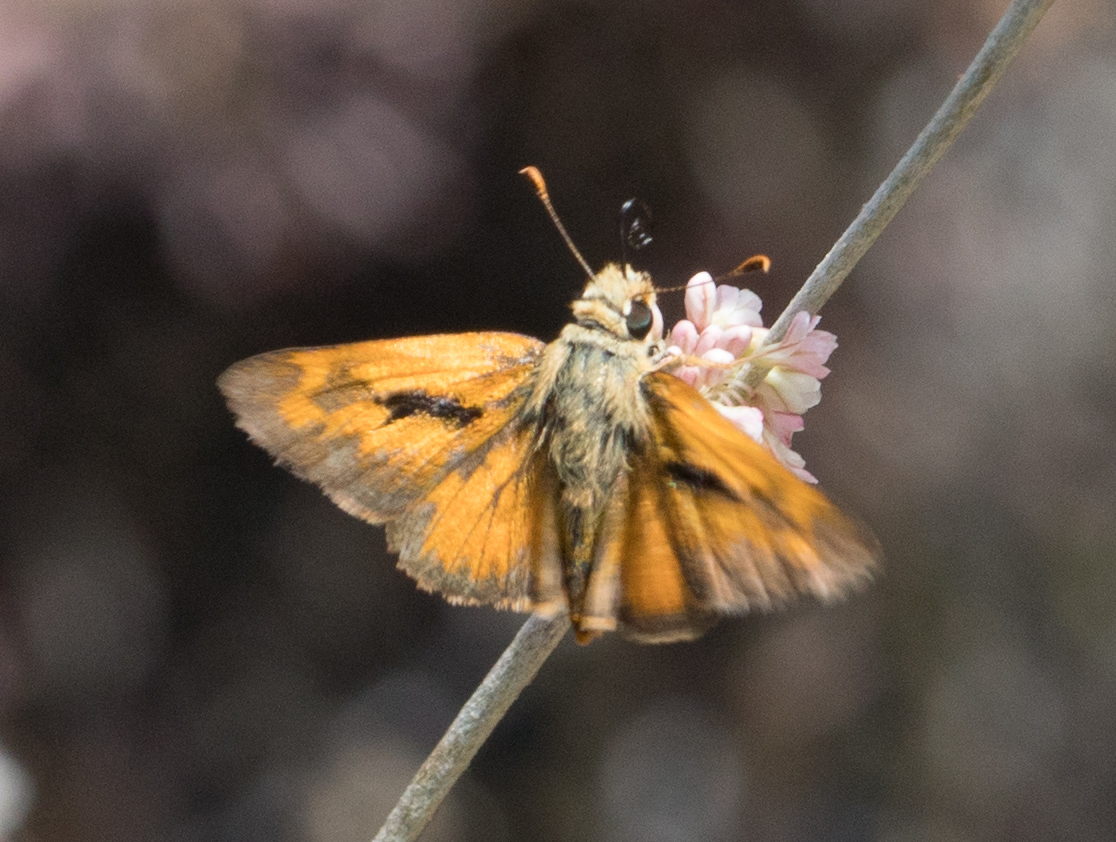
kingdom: Animalia
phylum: Arthropoda
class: Insecta
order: Lepidoptera
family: Hesperiidae
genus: Ochlodes
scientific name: Ochlodes sylvanoides
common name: Woodland skipper
